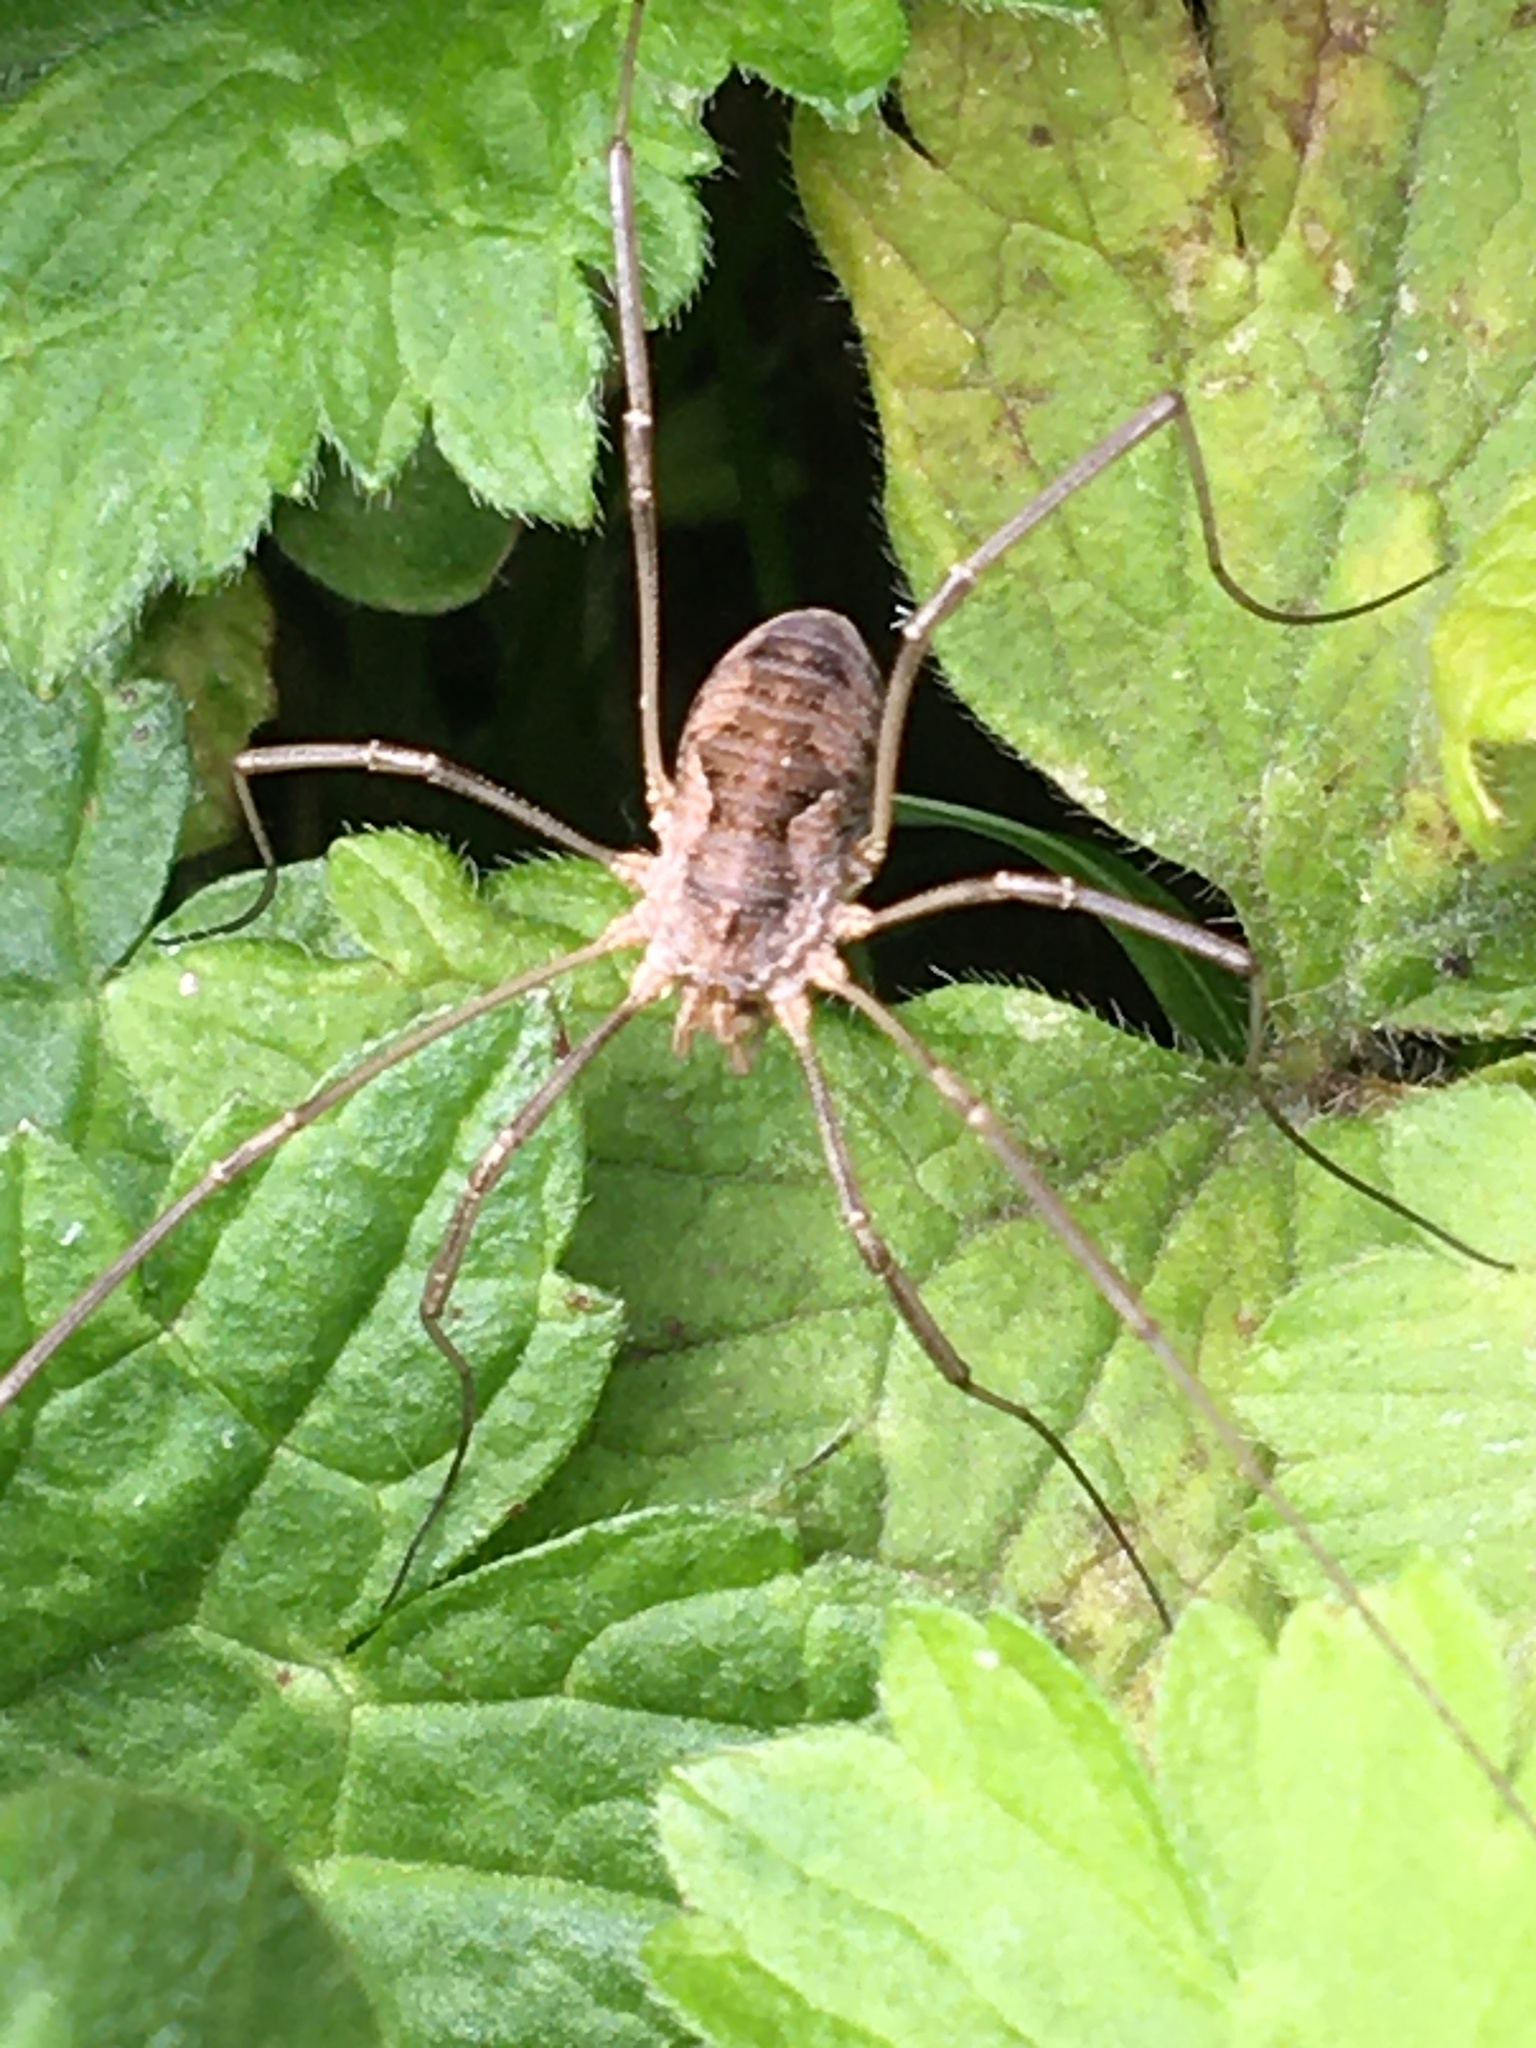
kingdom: Animalia
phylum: Arthropoda
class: Arachnida
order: Opiliones
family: Phalangiidae
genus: Phalangium
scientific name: Phalangium opilio
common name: Daddy longleg
